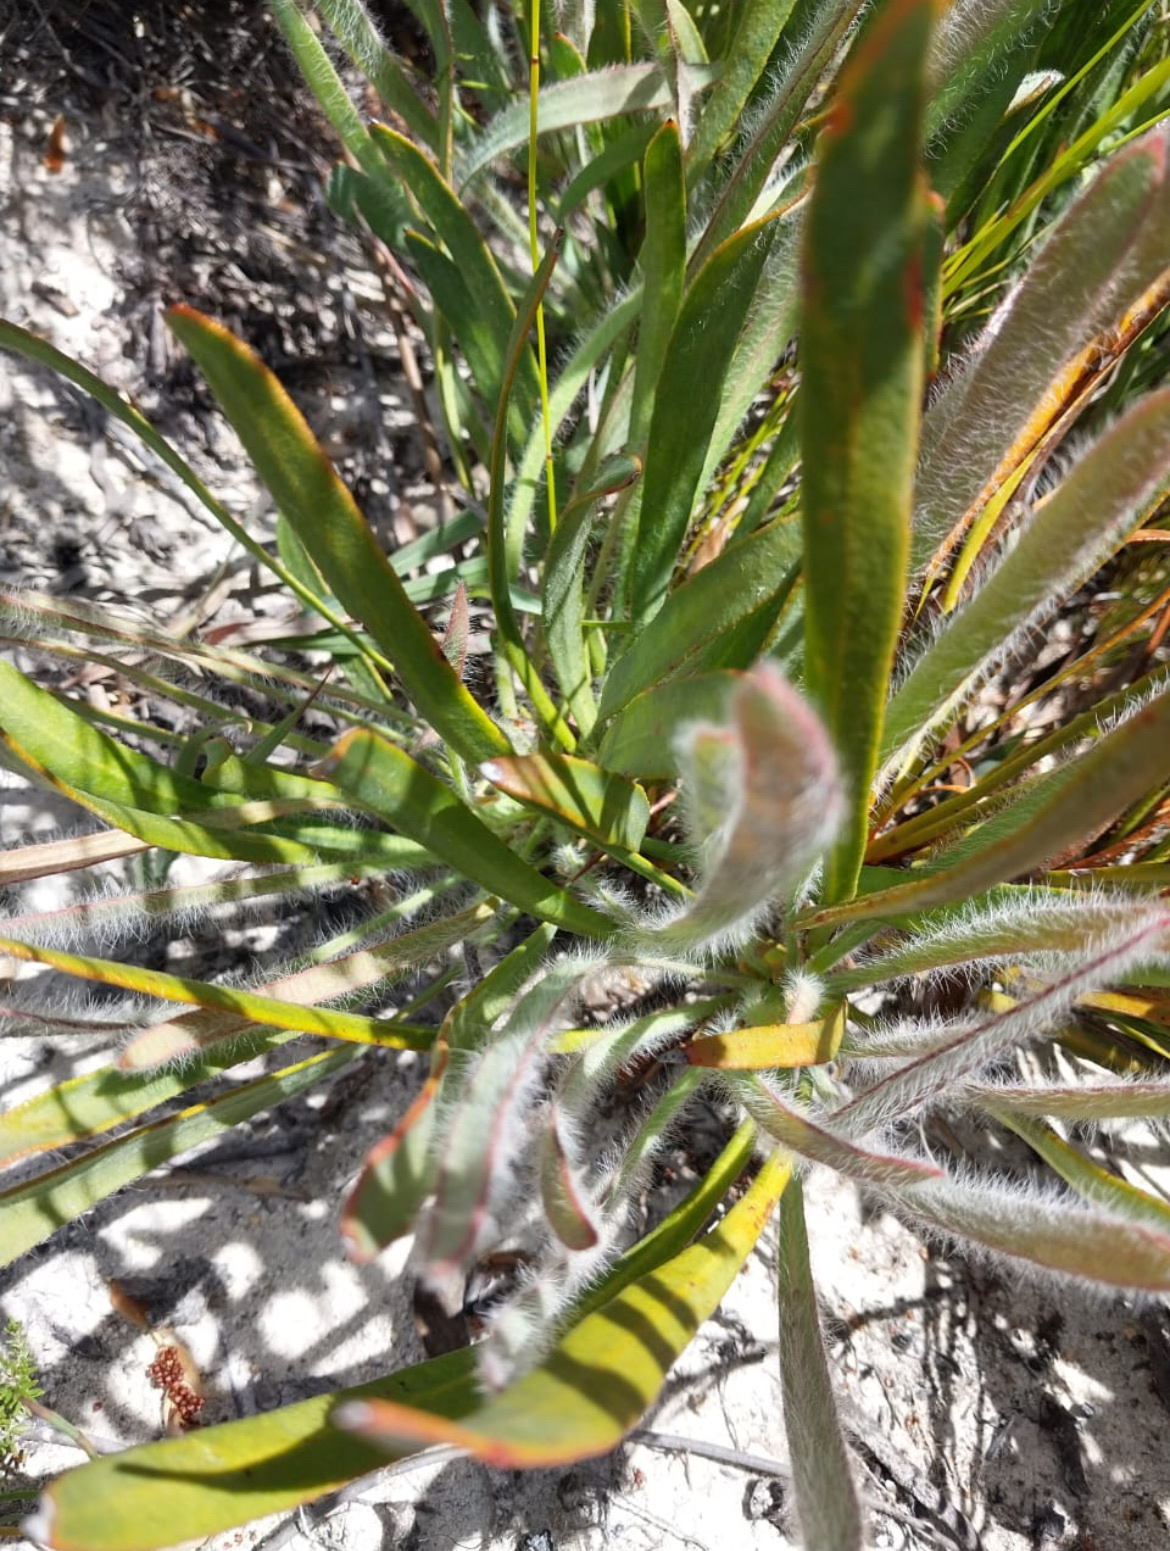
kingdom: Plantae
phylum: Tracheophyta
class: Magnoliopsida
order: Proteales
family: Proteaceae
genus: Protea
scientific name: Protea aspera
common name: Rough-leaf sugarbush
